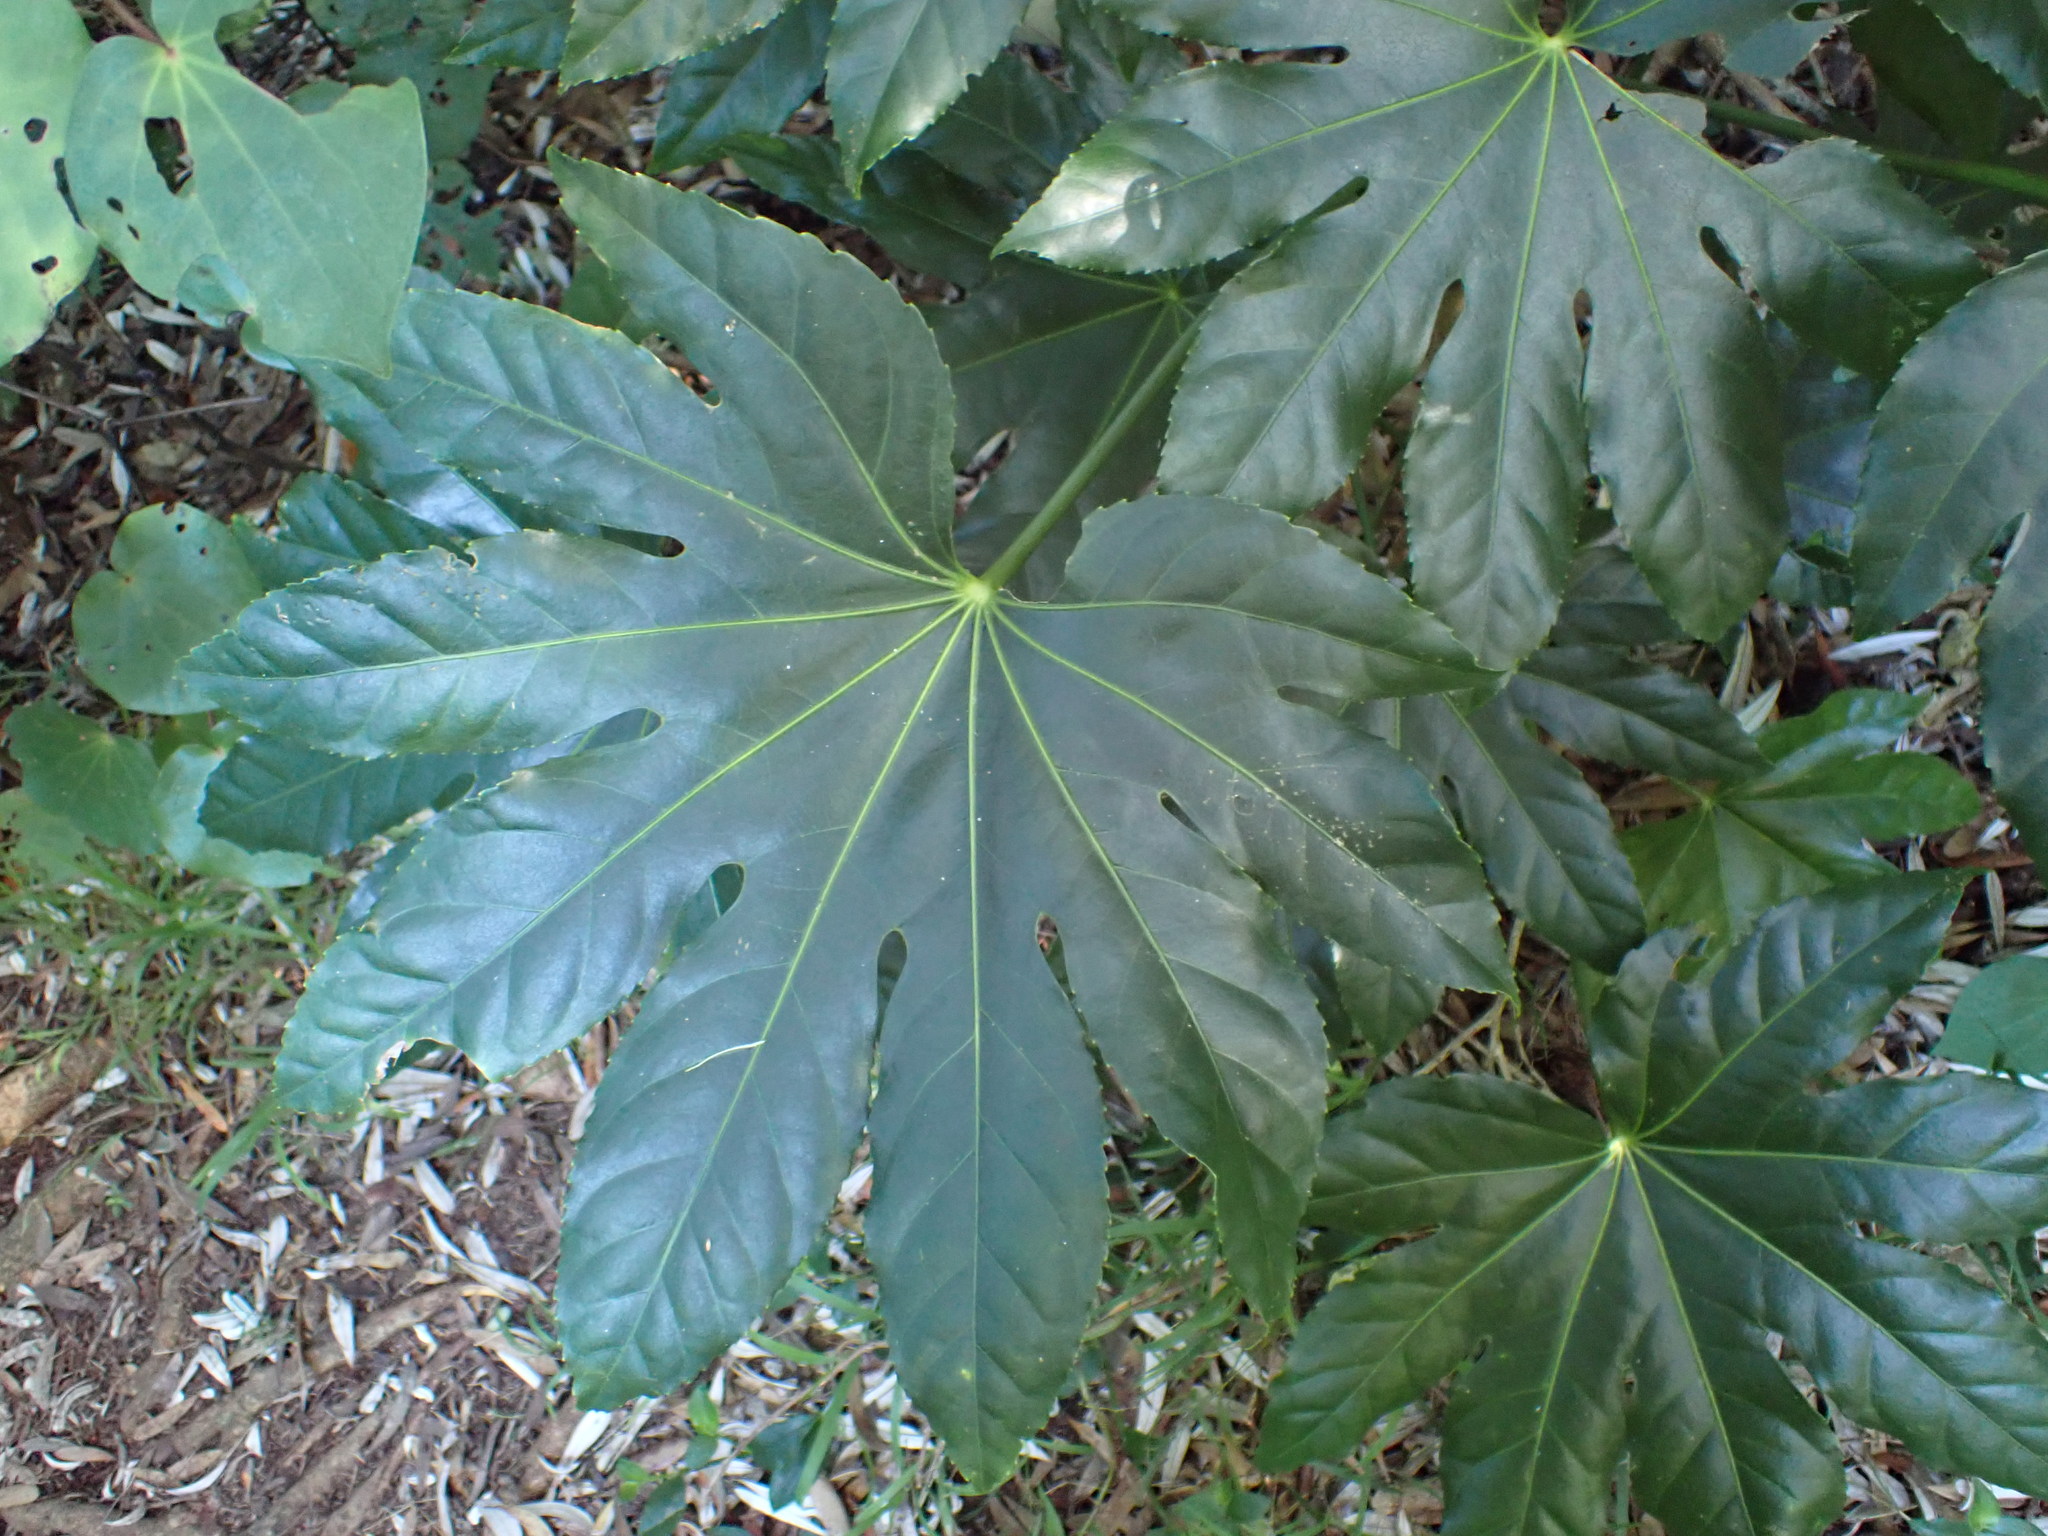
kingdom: Plantae
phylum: Tracheophyta
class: Magnoliopsida
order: Apiales
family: Araliaceae
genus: Fatsia
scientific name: Fatsia japonica
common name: Fatsia
